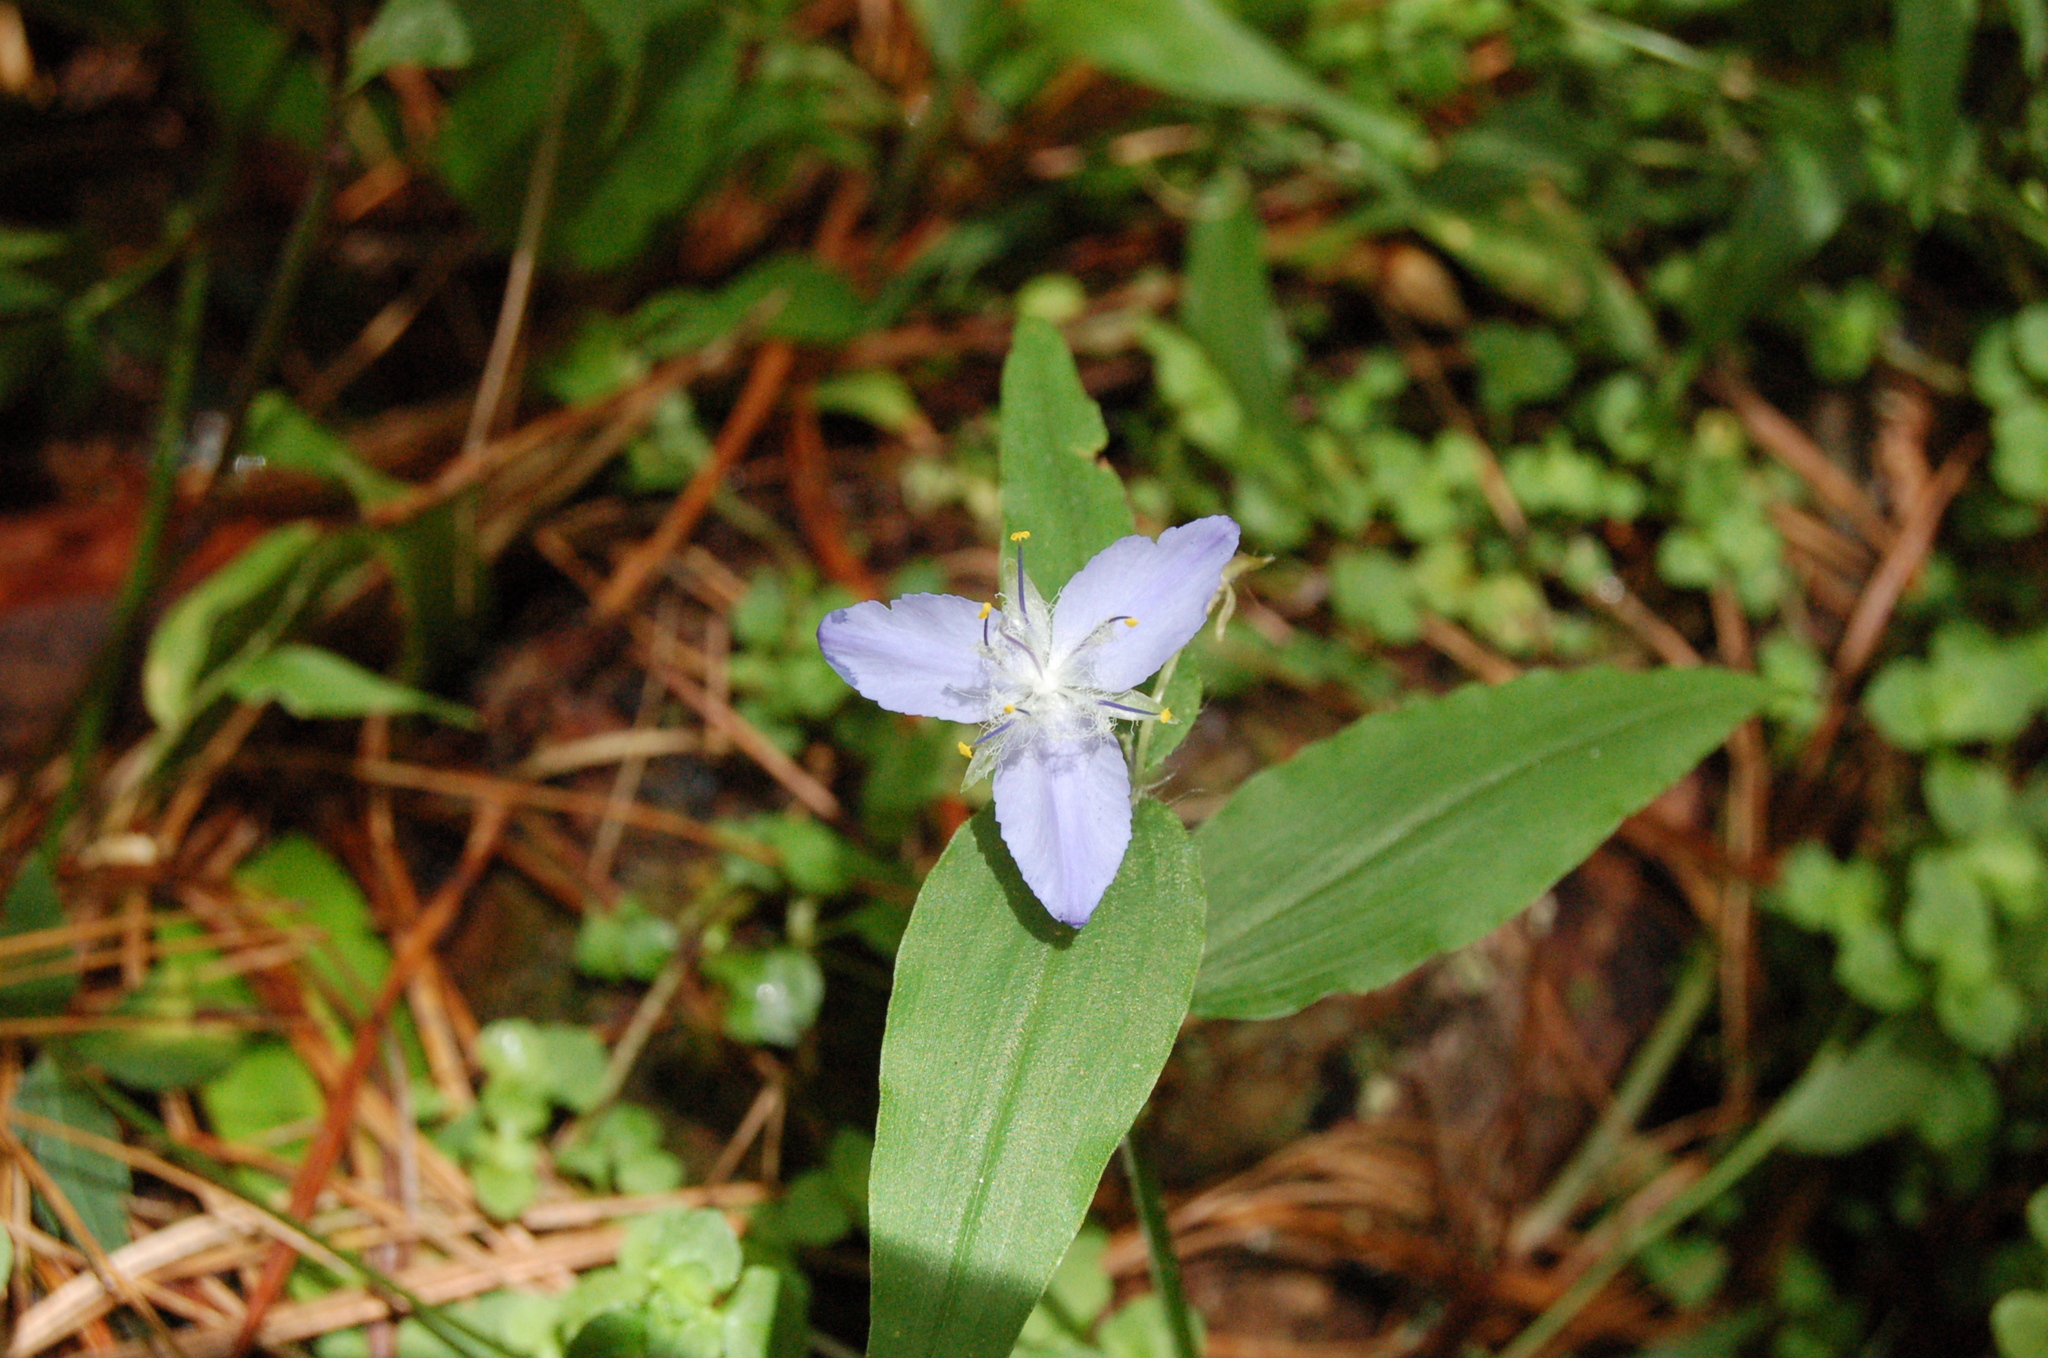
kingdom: Plantae
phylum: Tracheophyta
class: Liliopsida
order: Commelinales
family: Commelinaceae
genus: Elasis
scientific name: Elasis guatemalensis
